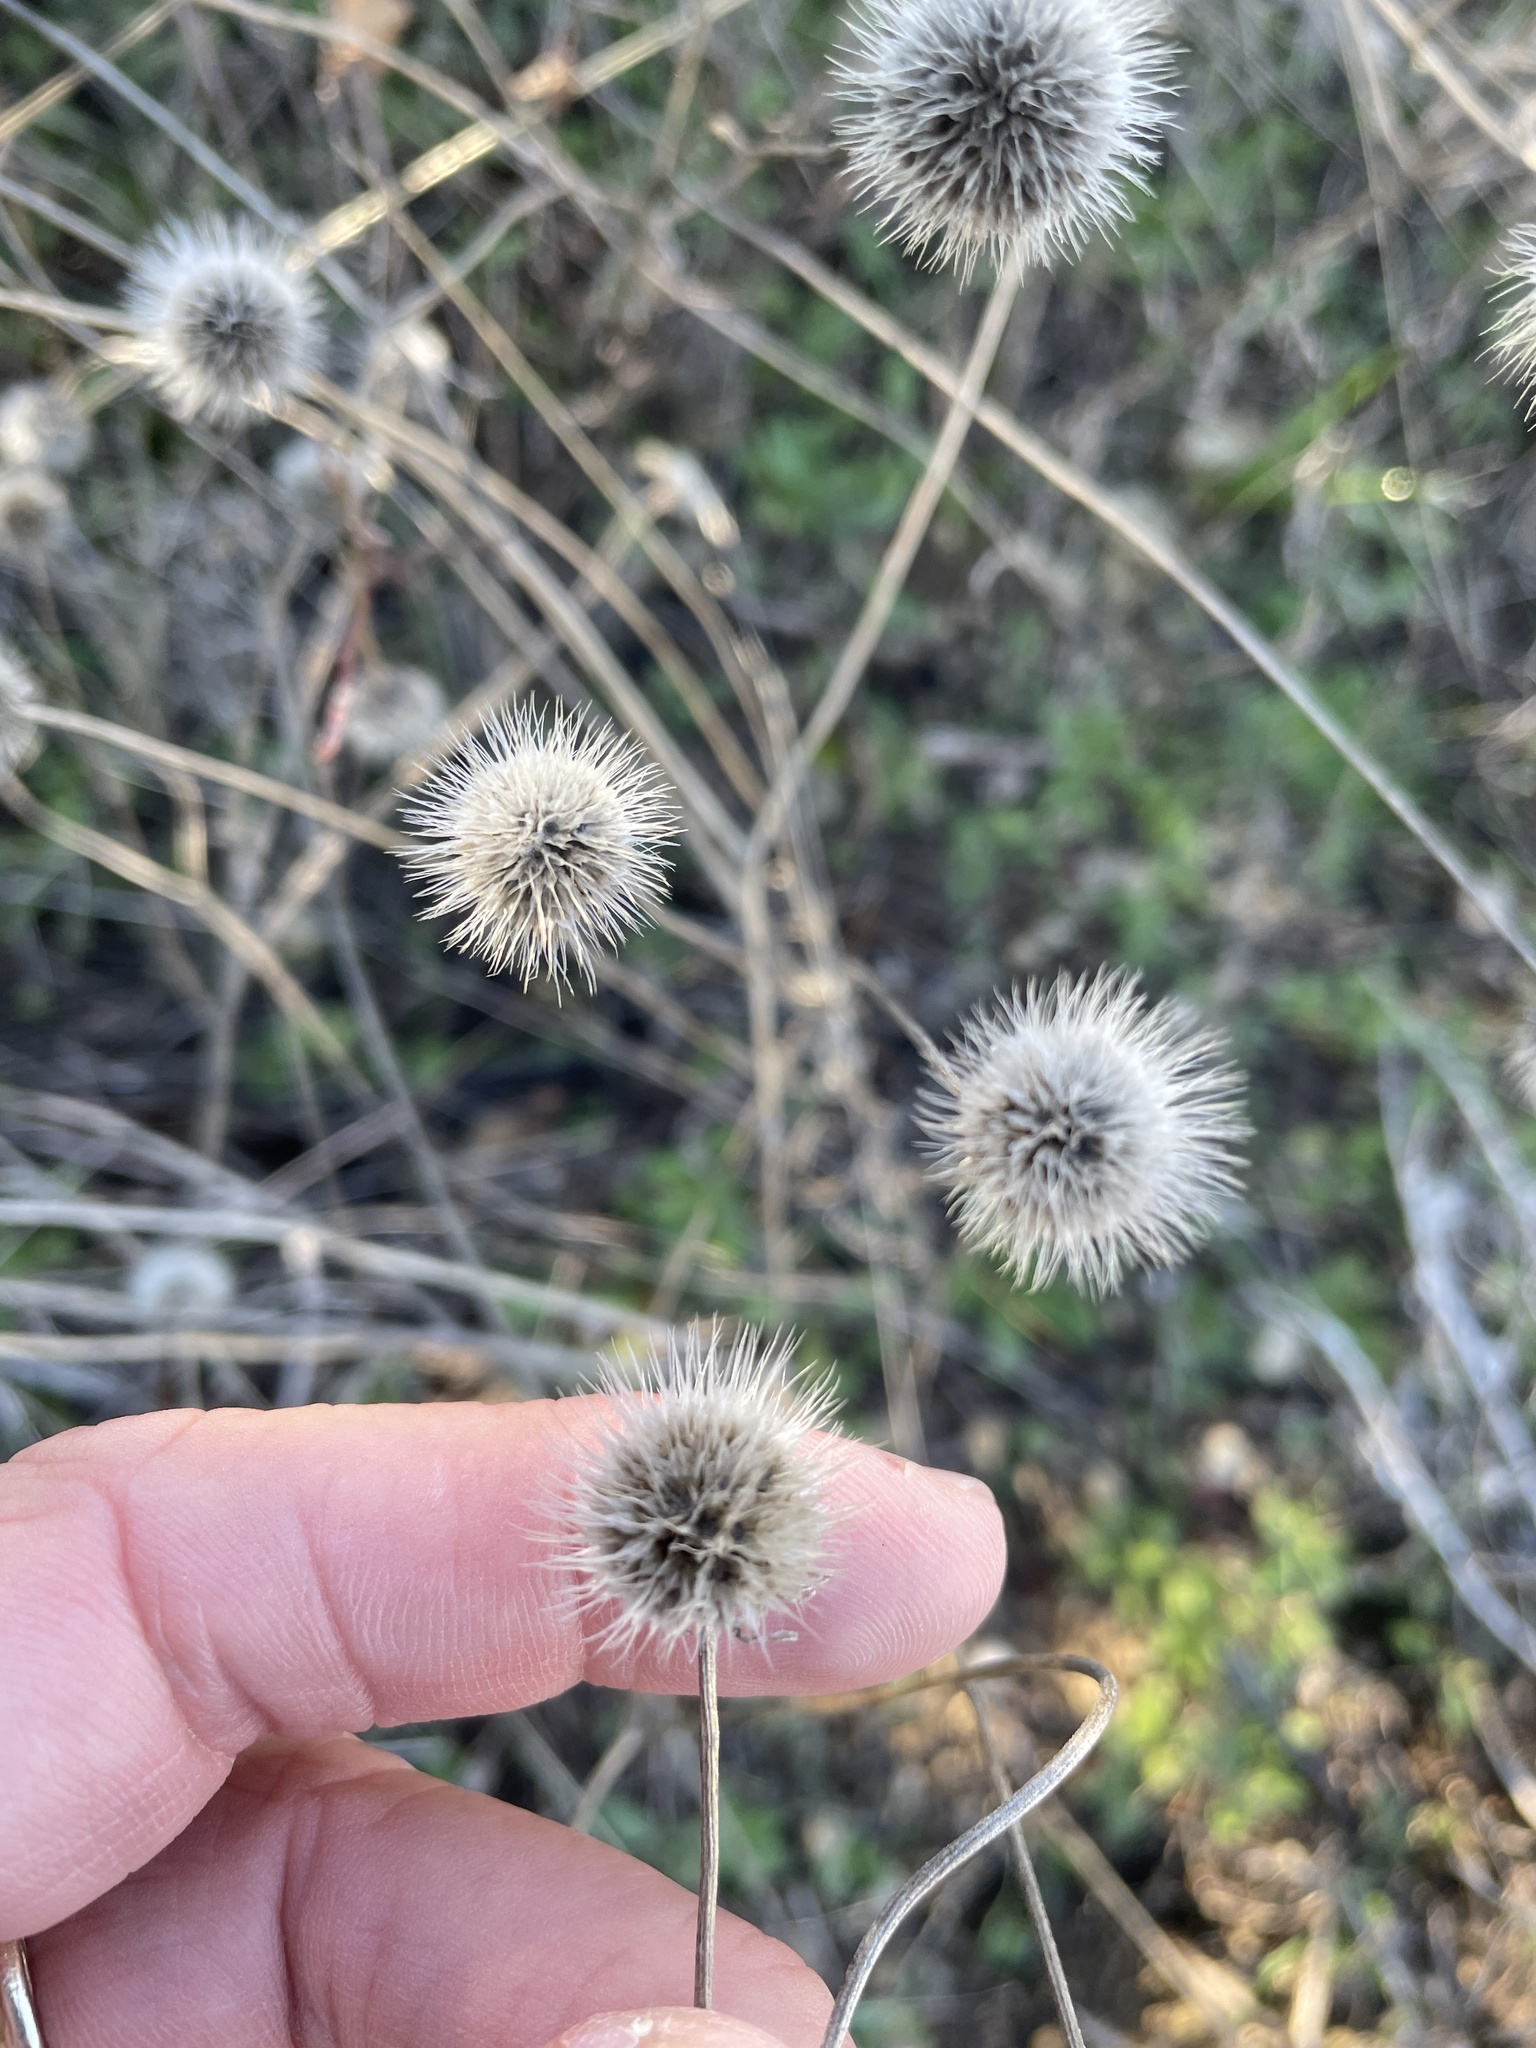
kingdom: Plantae
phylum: Tracheophyta
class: Magnoliopsida
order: Asterales
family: Asteraceae
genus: Gaillardia
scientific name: Gaillardia pulchella
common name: Firewheel
